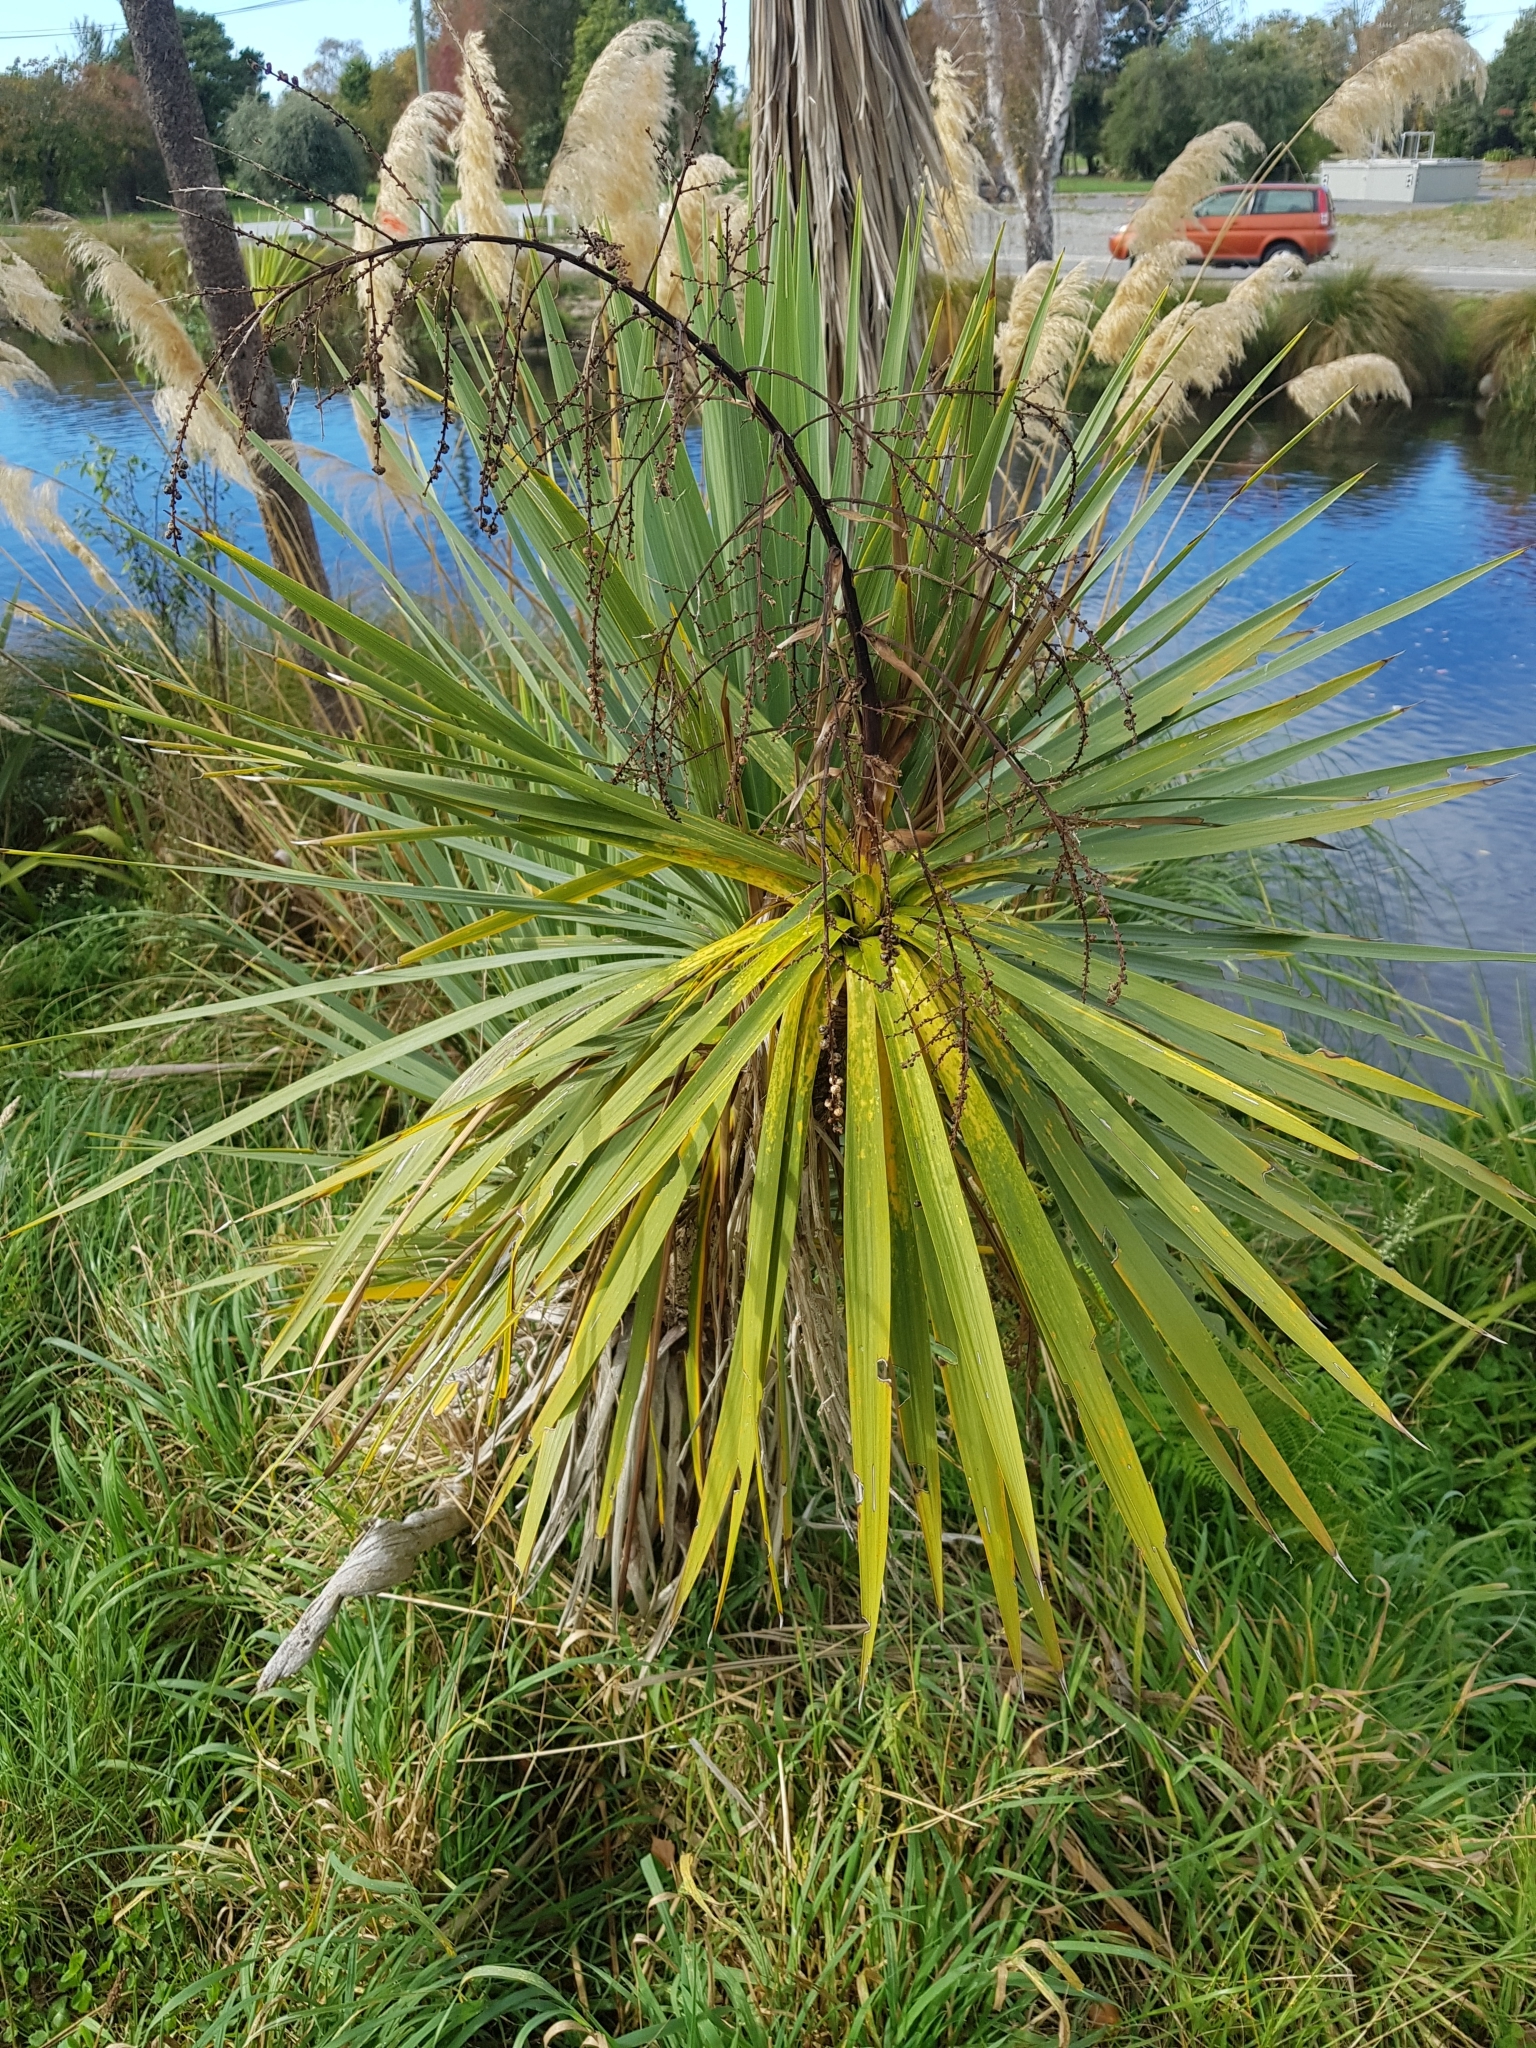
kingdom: Plantae
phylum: Tracheophyta
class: Liliopsida
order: Asparagales
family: Asparagaceae
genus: Cordyline
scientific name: Cordyline australis
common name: Cabbage-palm
